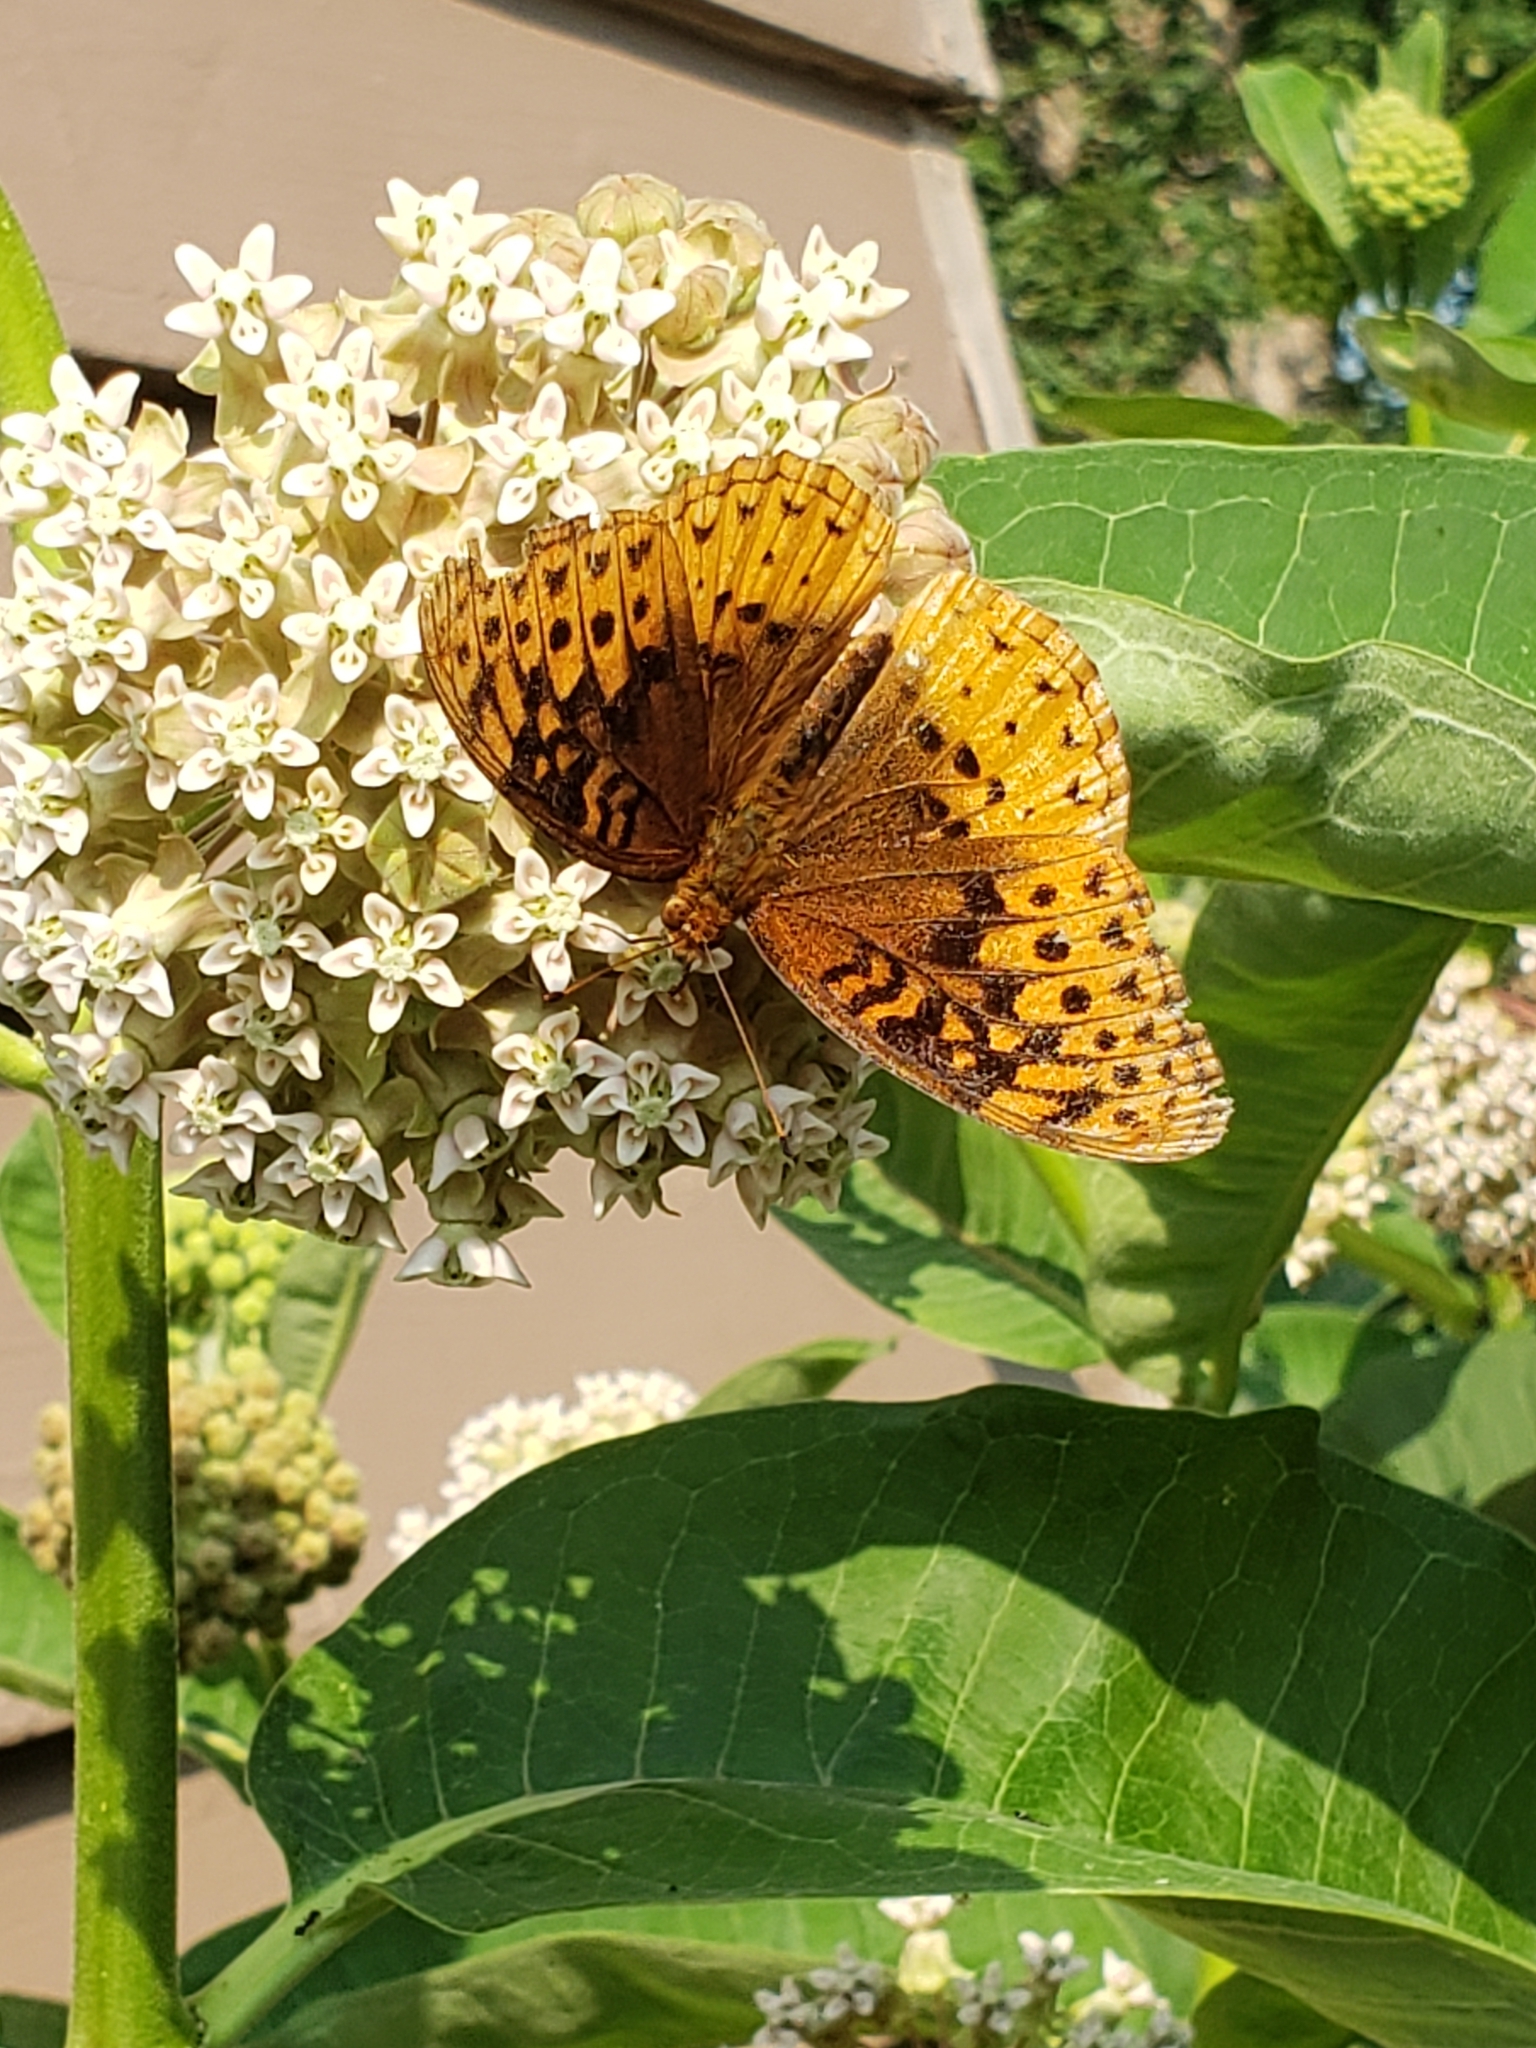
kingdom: Animalia
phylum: Arthropoda
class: Insecta
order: Lepidoptera
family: Nymphalidae
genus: Speyeria
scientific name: Speyeria cybele
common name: Great spangled fritillary
